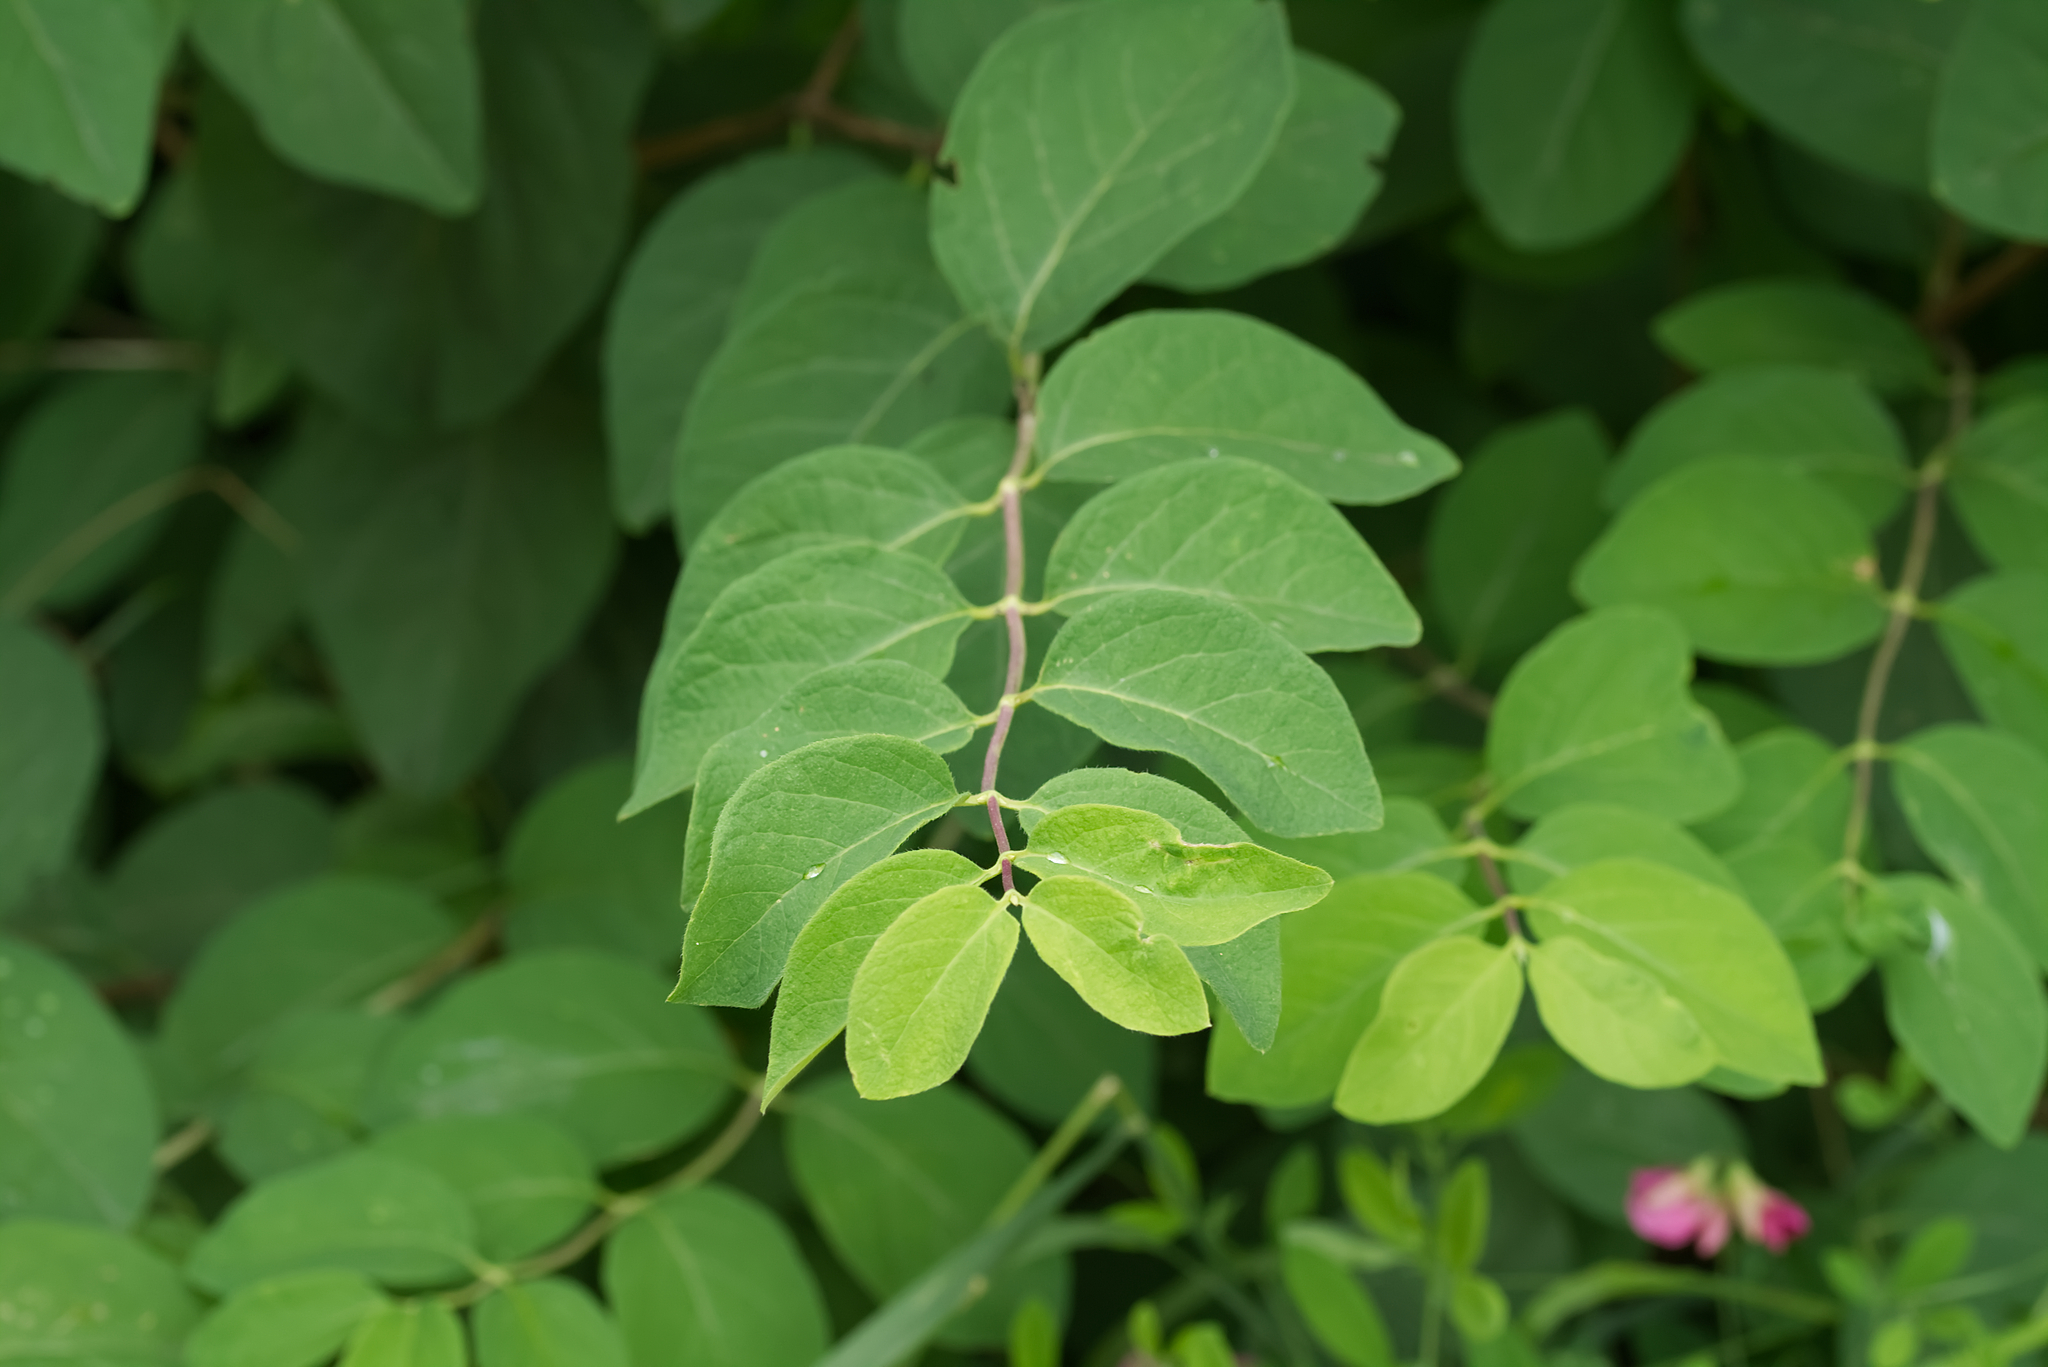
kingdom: Plantae
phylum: Tracheophyta
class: Magnoliopsida
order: Dipsacales
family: Caprifoliaceae
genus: Lonicera
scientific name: Lonicera xylosteum
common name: Fly honeysuckle
